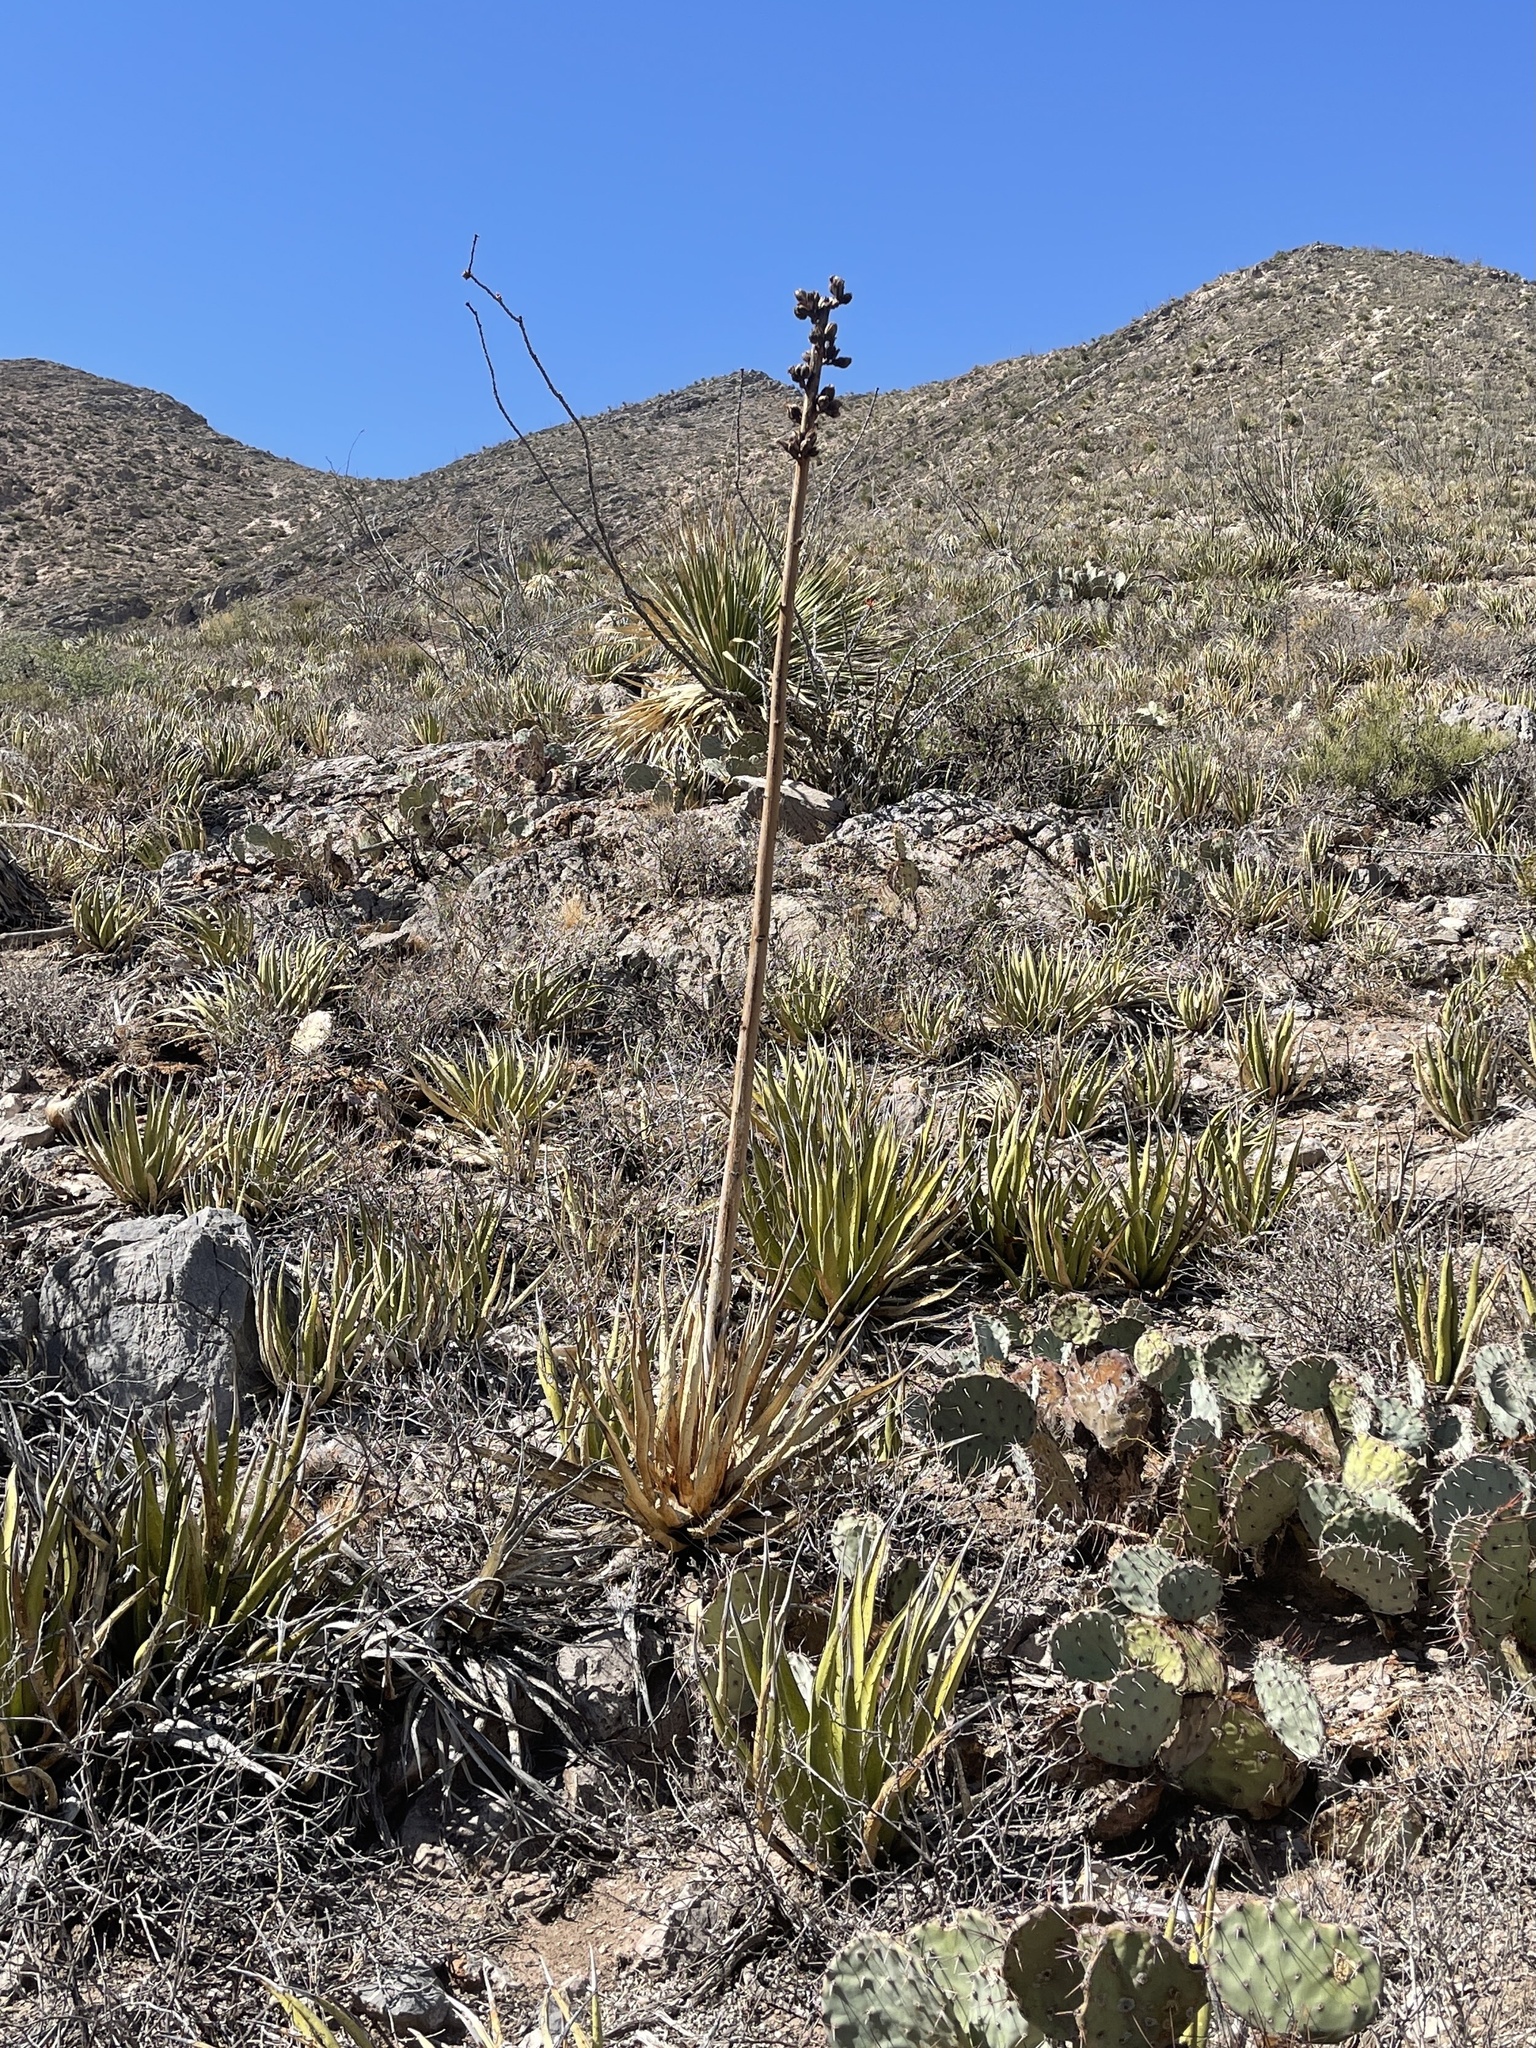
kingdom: Plantae
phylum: Tracheophyta
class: Liliopsida
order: Asparagales
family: Asparagaceae
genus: Agave
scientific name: Agave lechuguilla
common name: Lecheguilla agave
